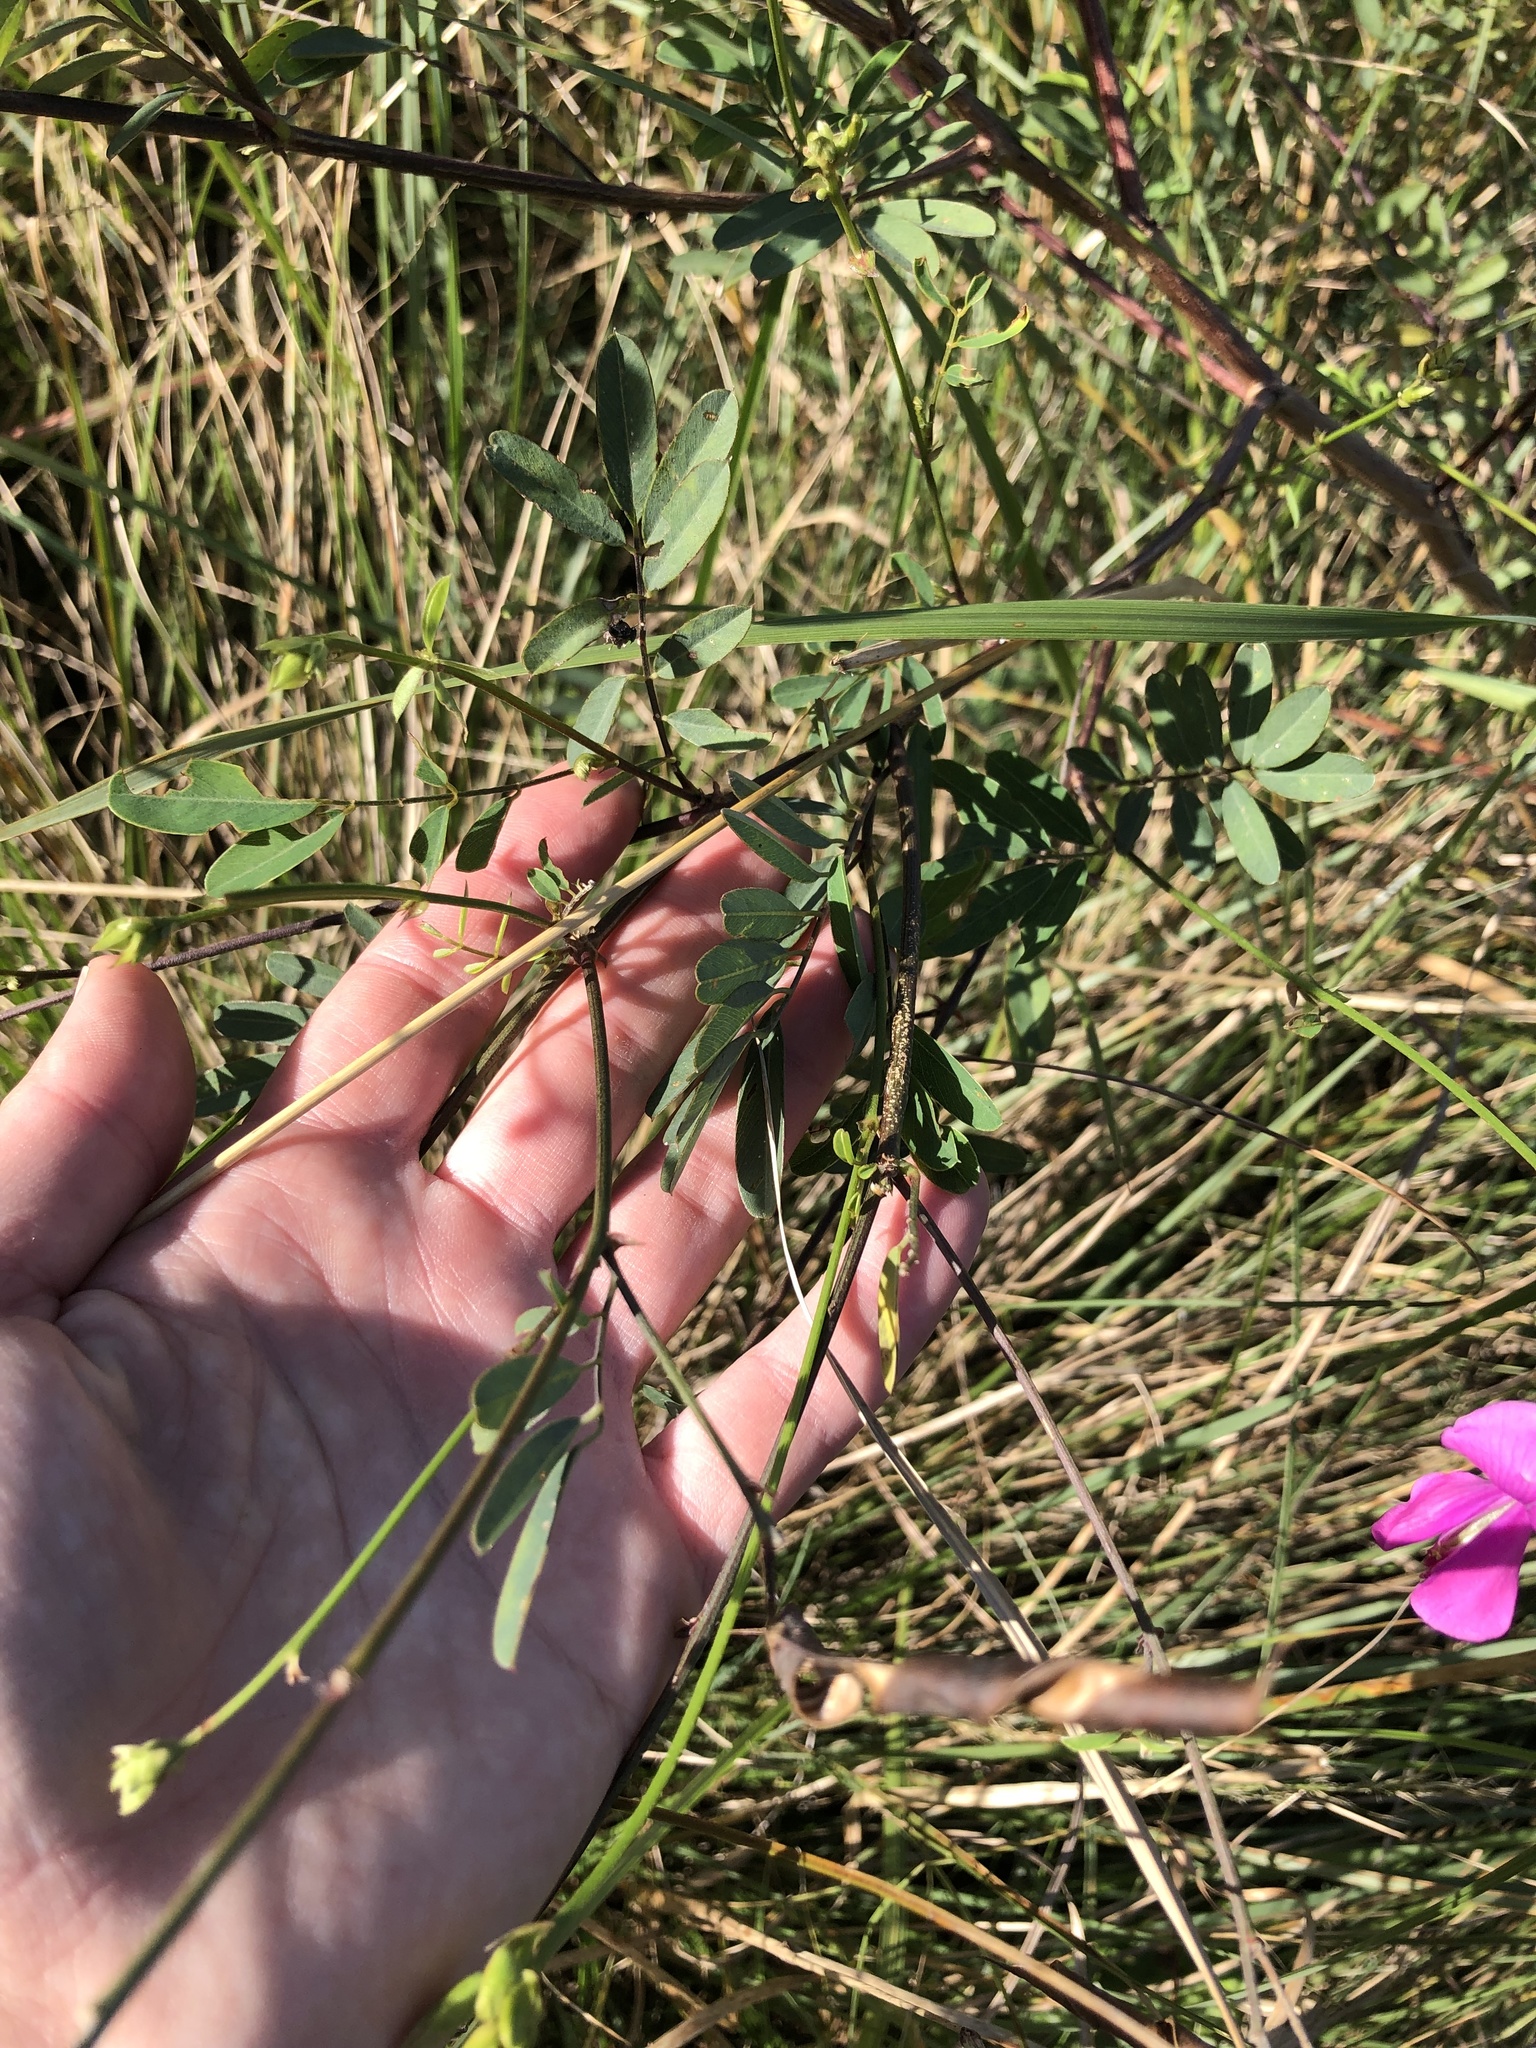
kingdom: Plantae
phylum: Tracheophyta
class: Magnoliopsida
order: Fabales
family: Fabaceae
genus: Tephrosia
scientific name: Tephrosia macropoda
